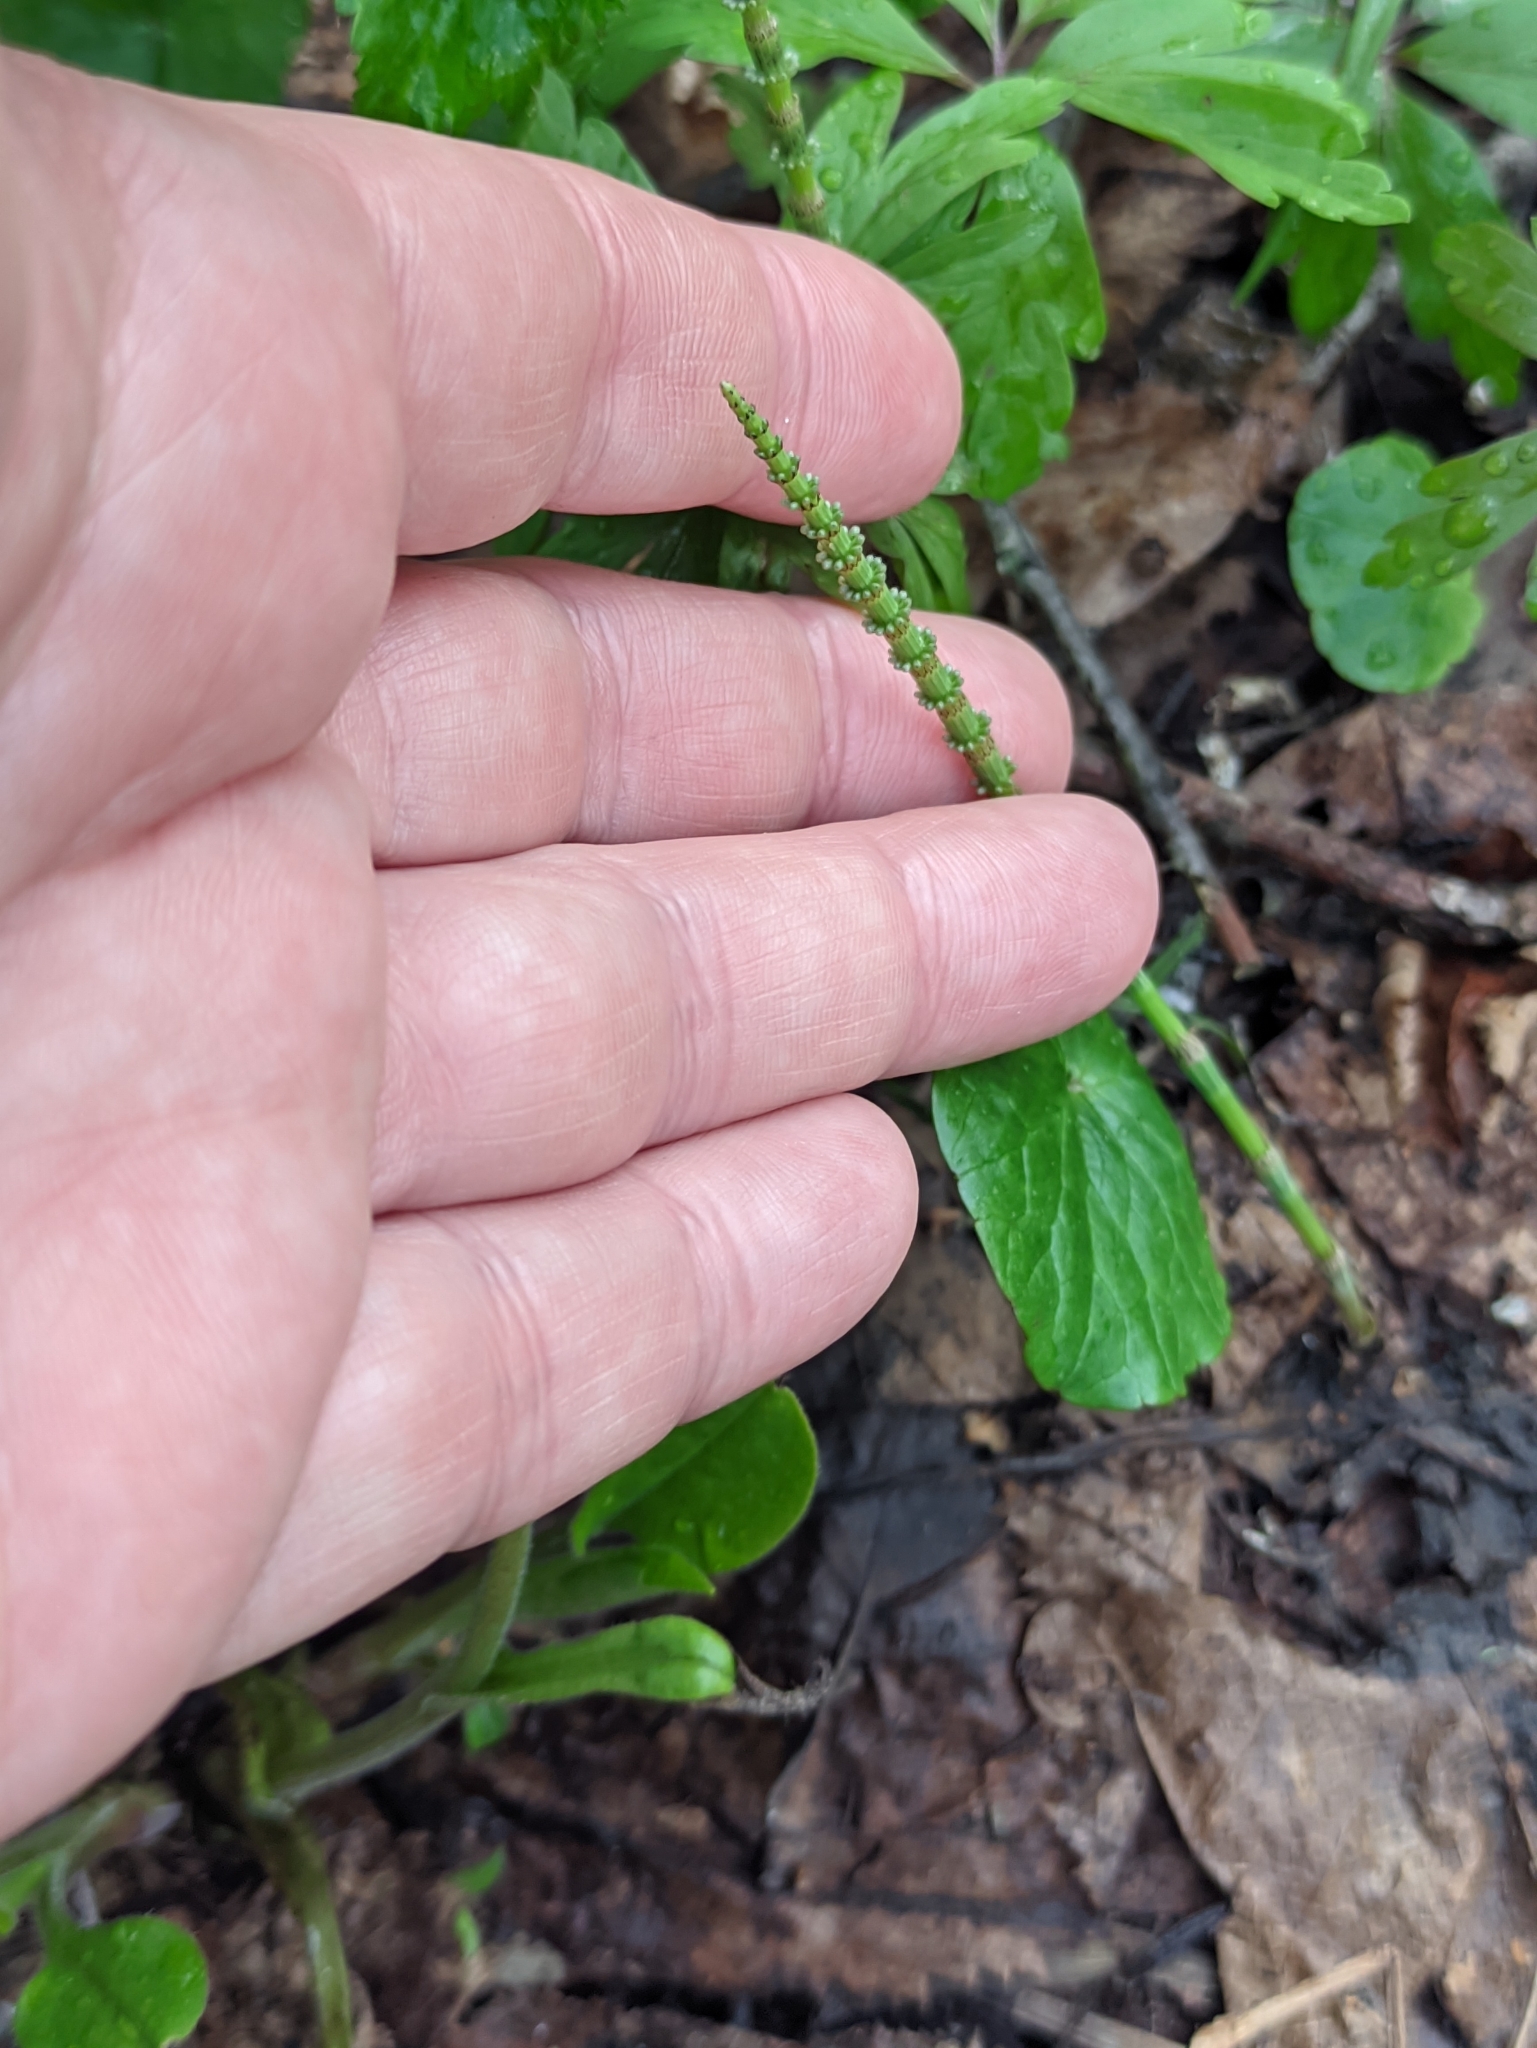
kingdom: Plantae
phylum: Tracheophyta
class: Polypodiopsida
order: Equisetales
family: Equisetaceae
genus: Equisetum
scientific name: Equisetum pratense
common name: Meadow horsetail
